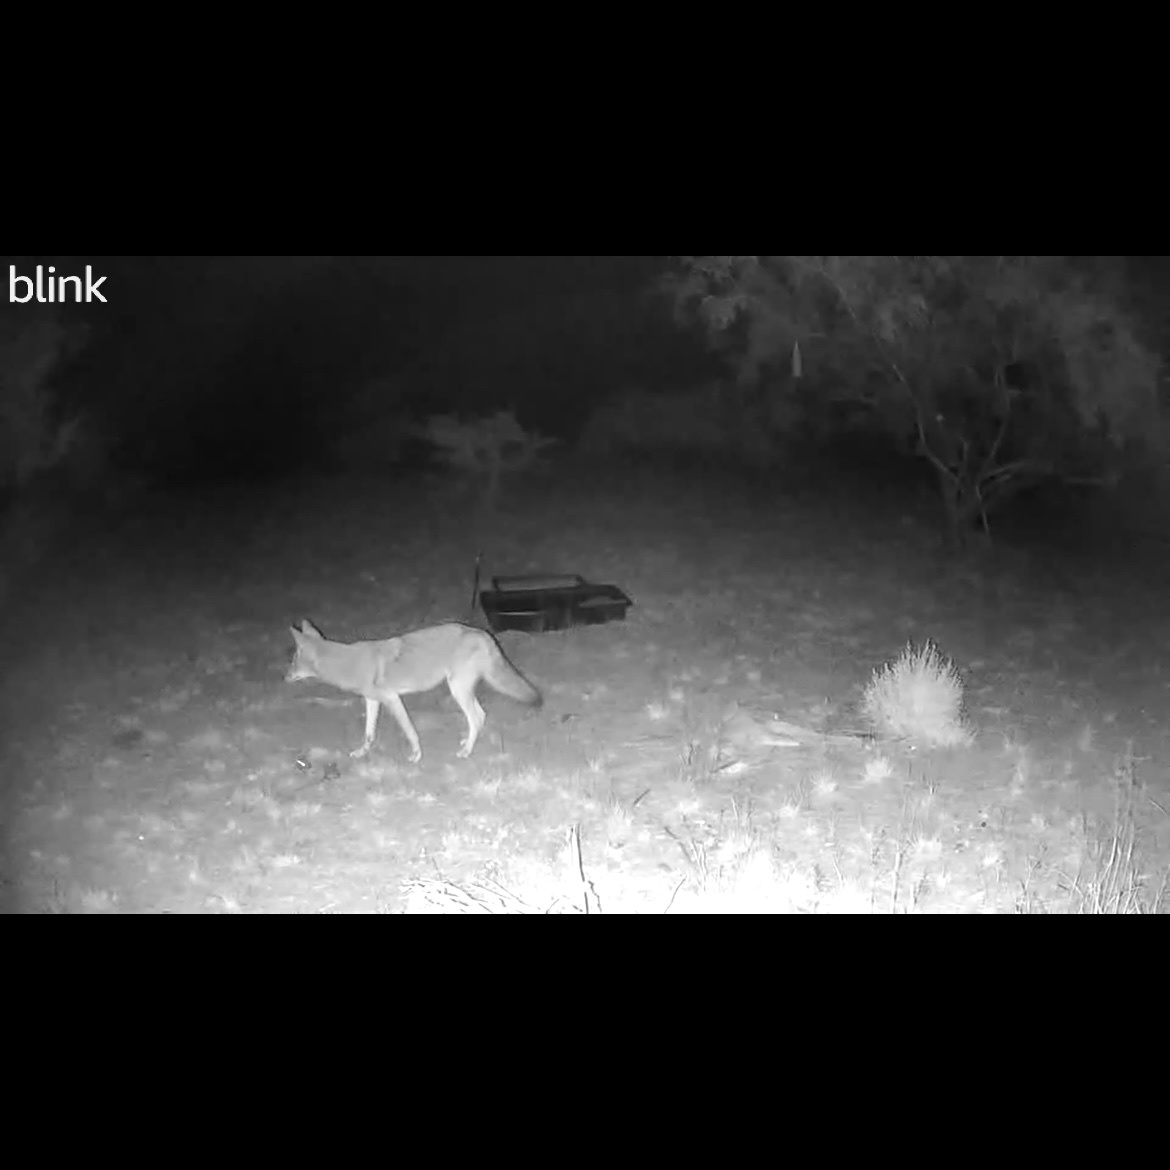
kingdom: Animalia
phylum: Chordata
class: Mammalia
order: Carnivora
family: Canidae
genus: Canis
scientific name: Canis latrans
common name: Coyote
